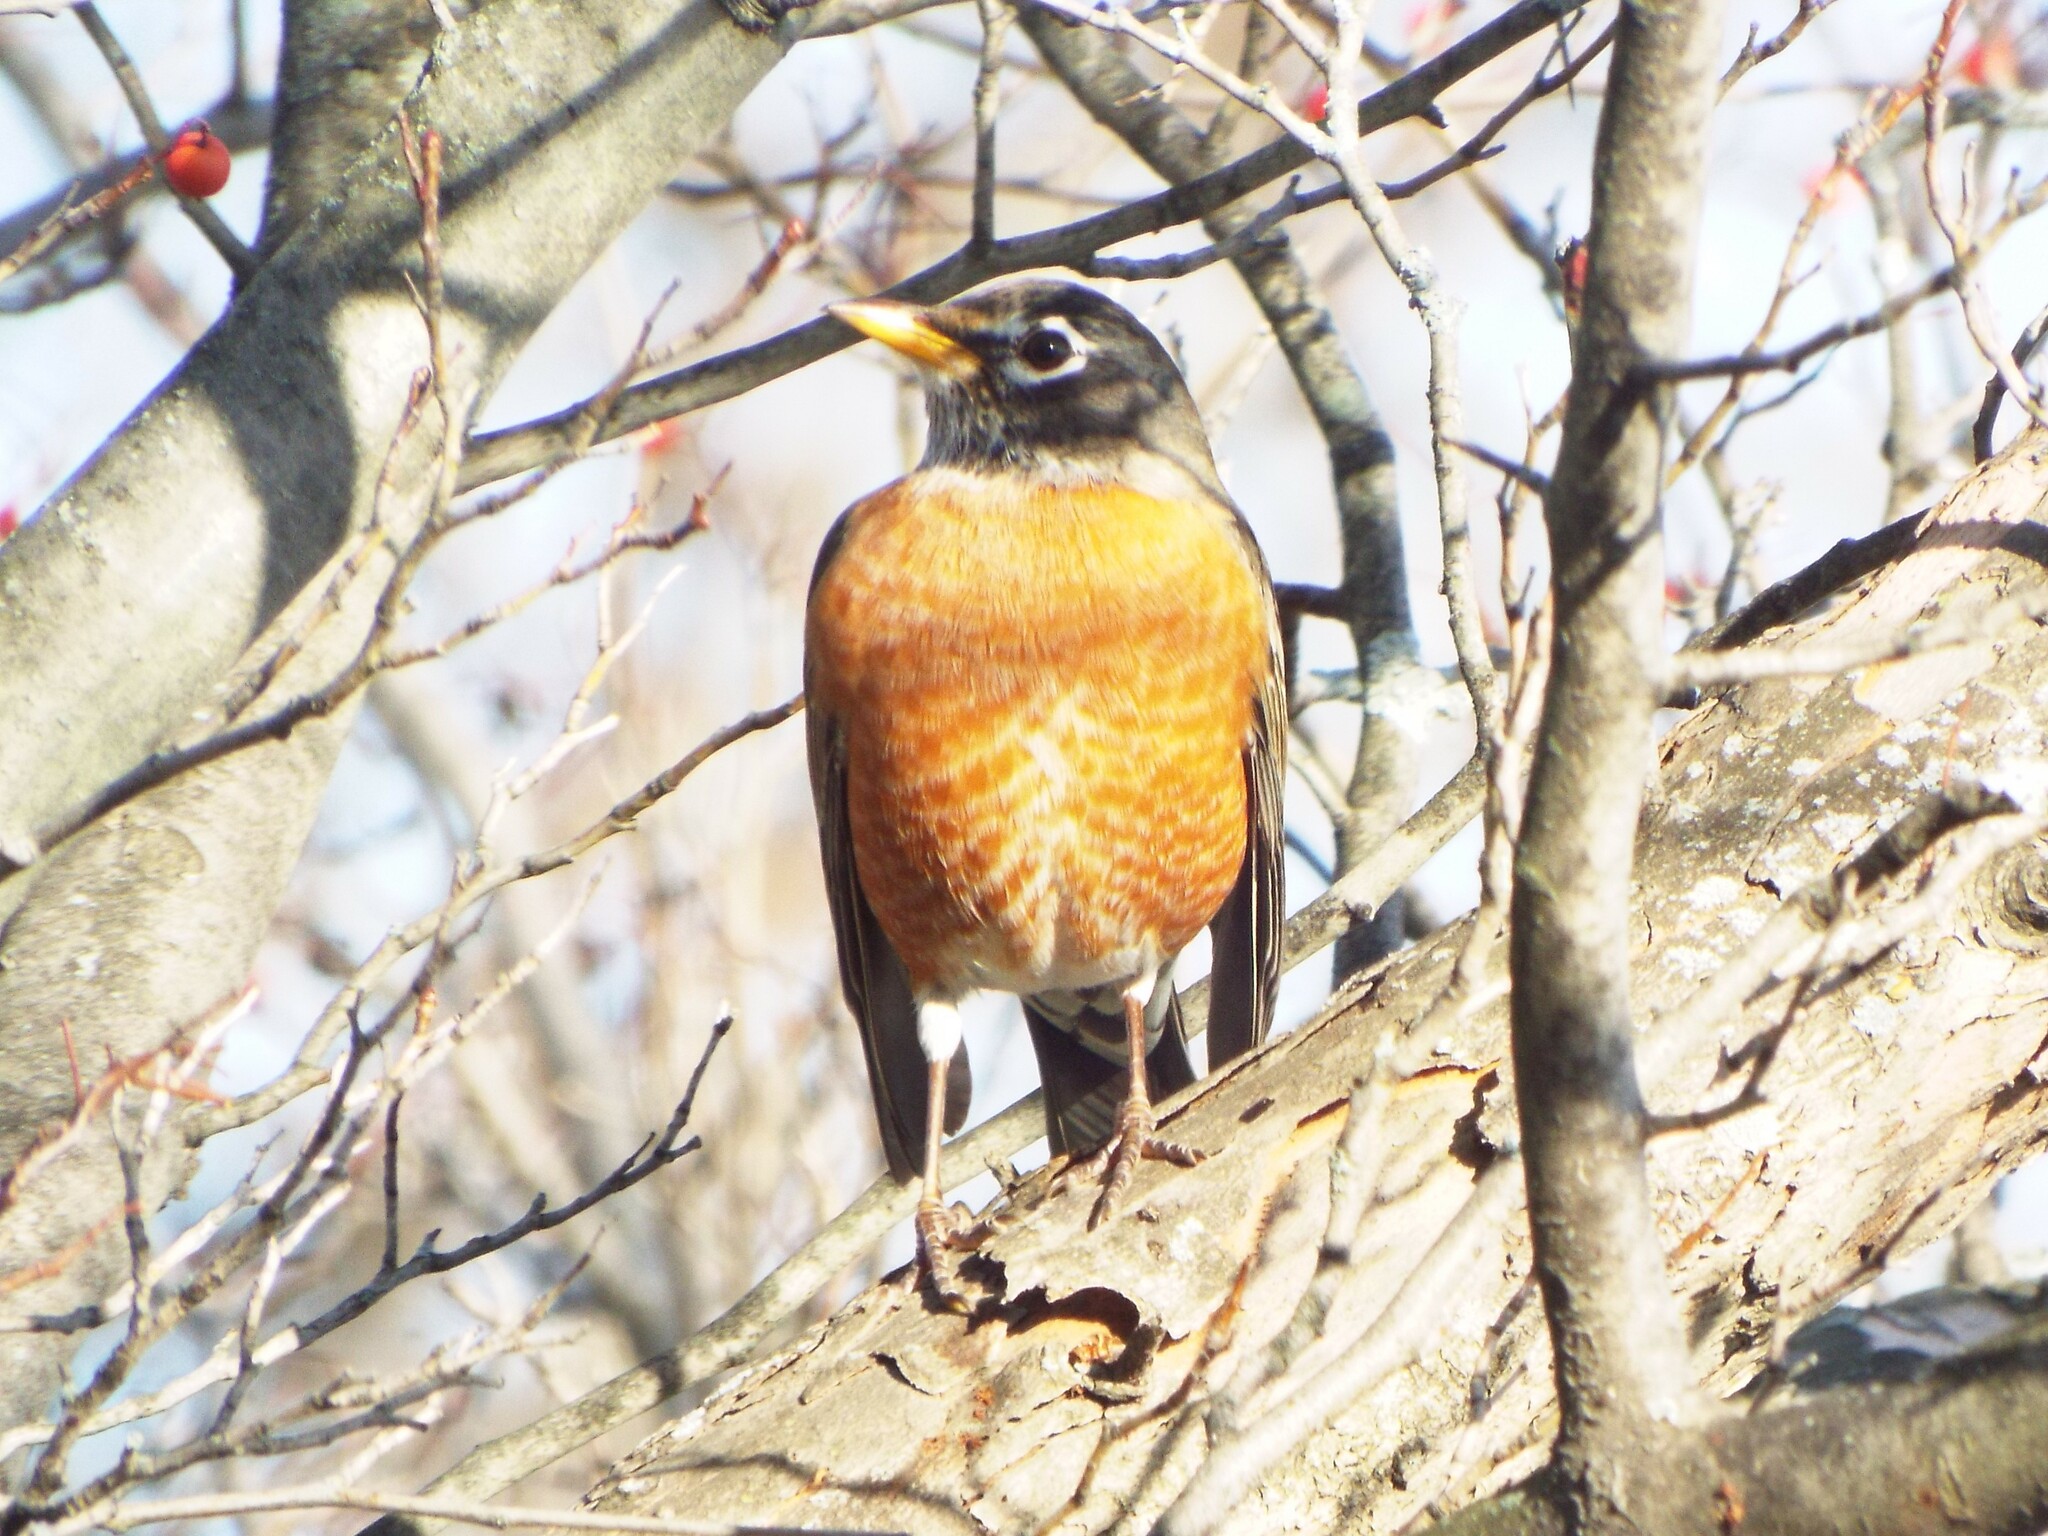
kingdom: Animalia
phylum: Chordata
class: Aves
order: Passeriformes
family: Turdidae
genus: Turdus
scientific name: Turdus migratorius
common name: American robin
